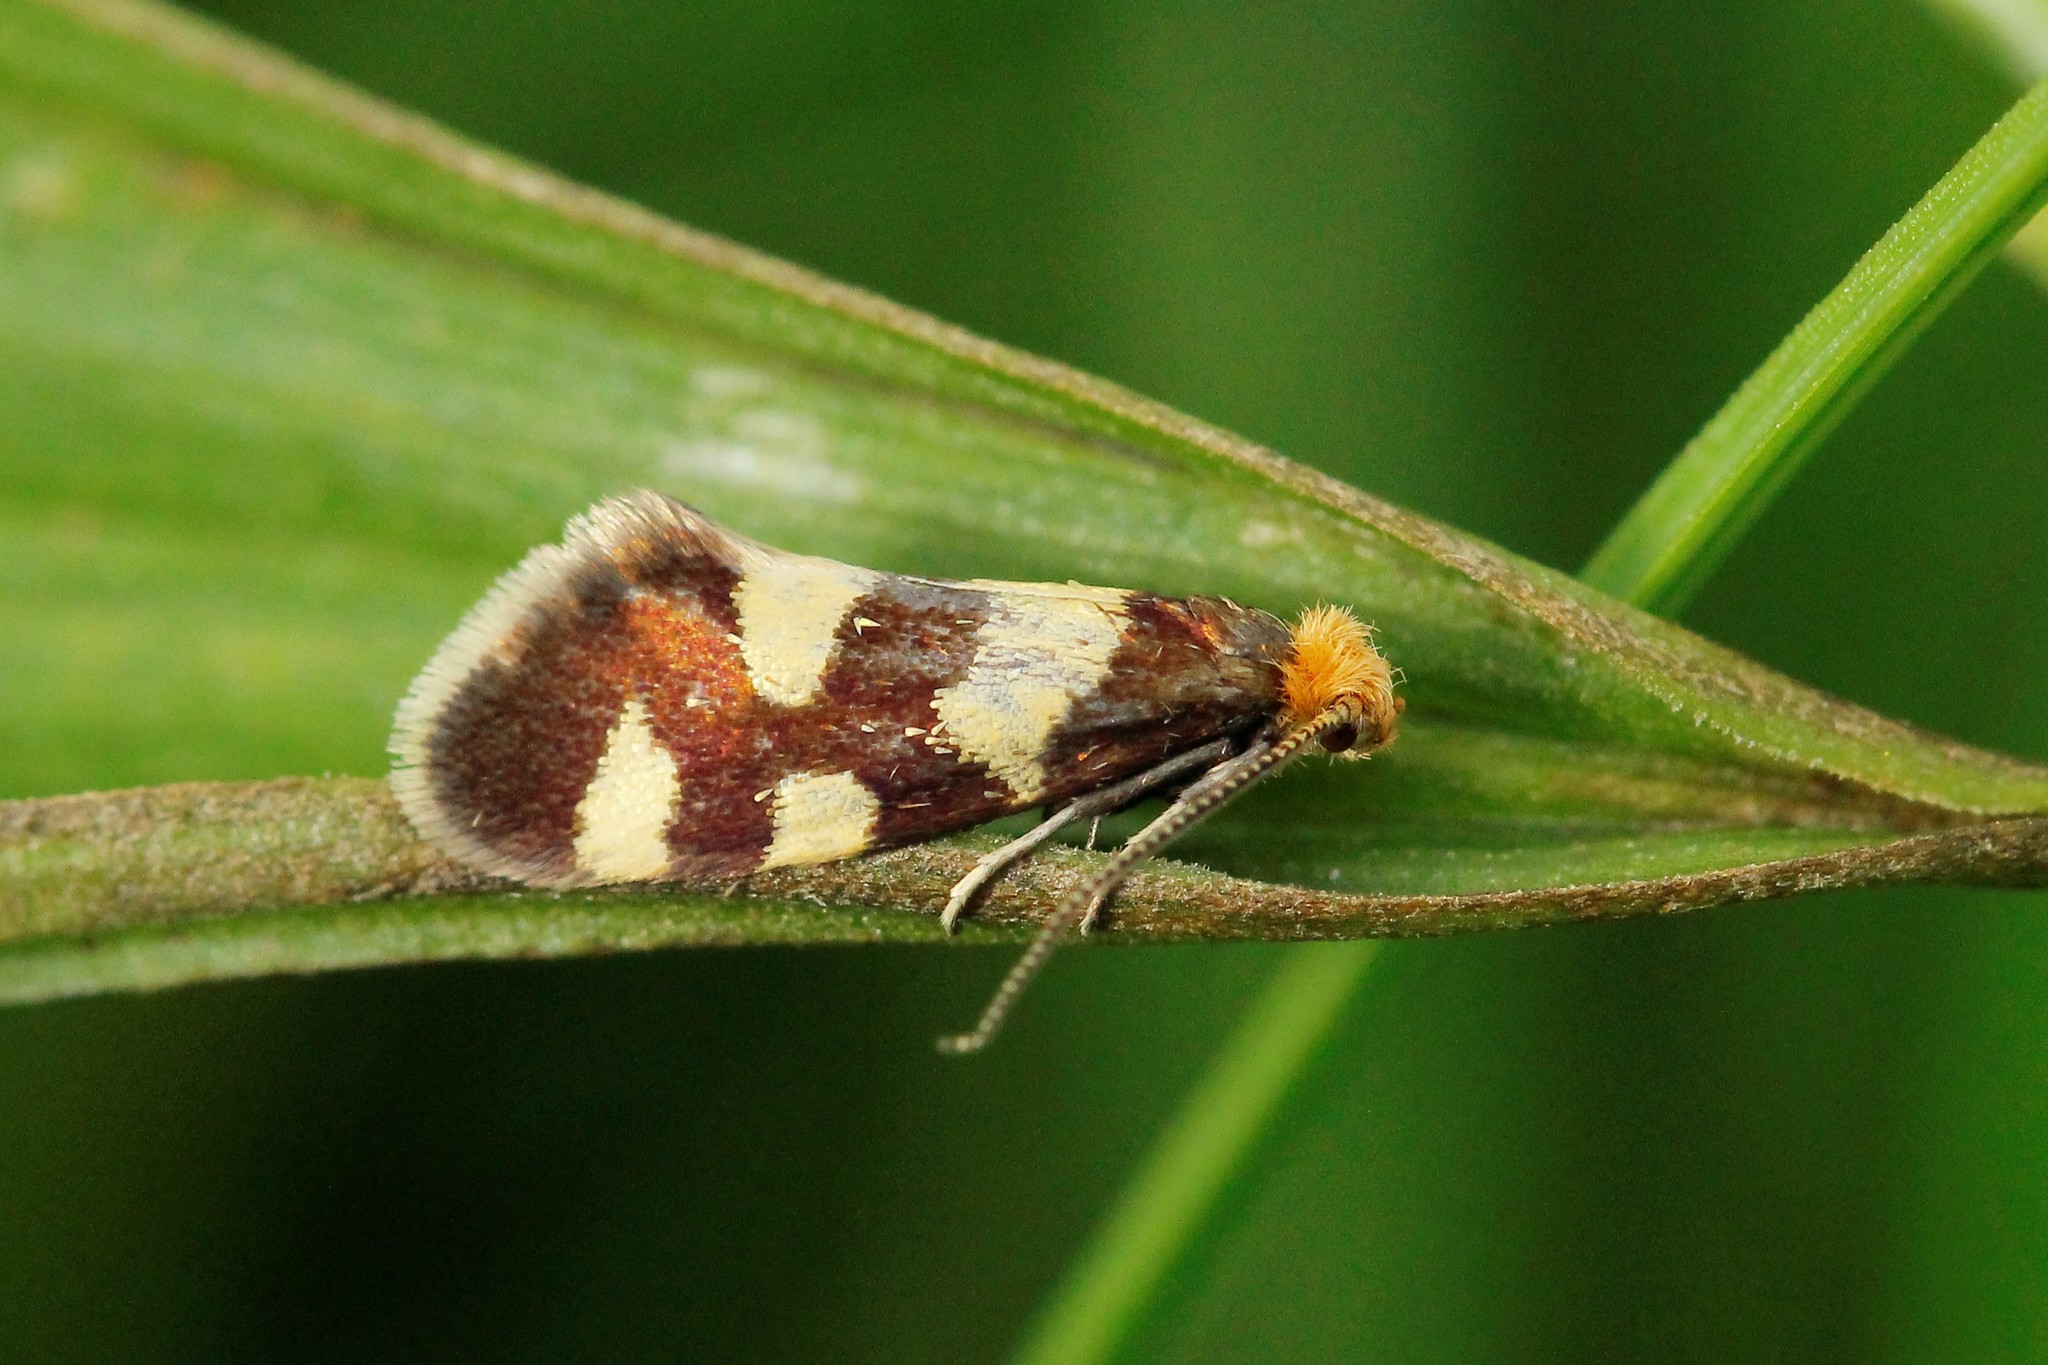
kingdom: Animalia
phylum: Arthropoda
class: Insecta
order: Lepidoptera
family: Incurvariidae
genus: Incurvaria
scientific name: Incurvaria rupella
